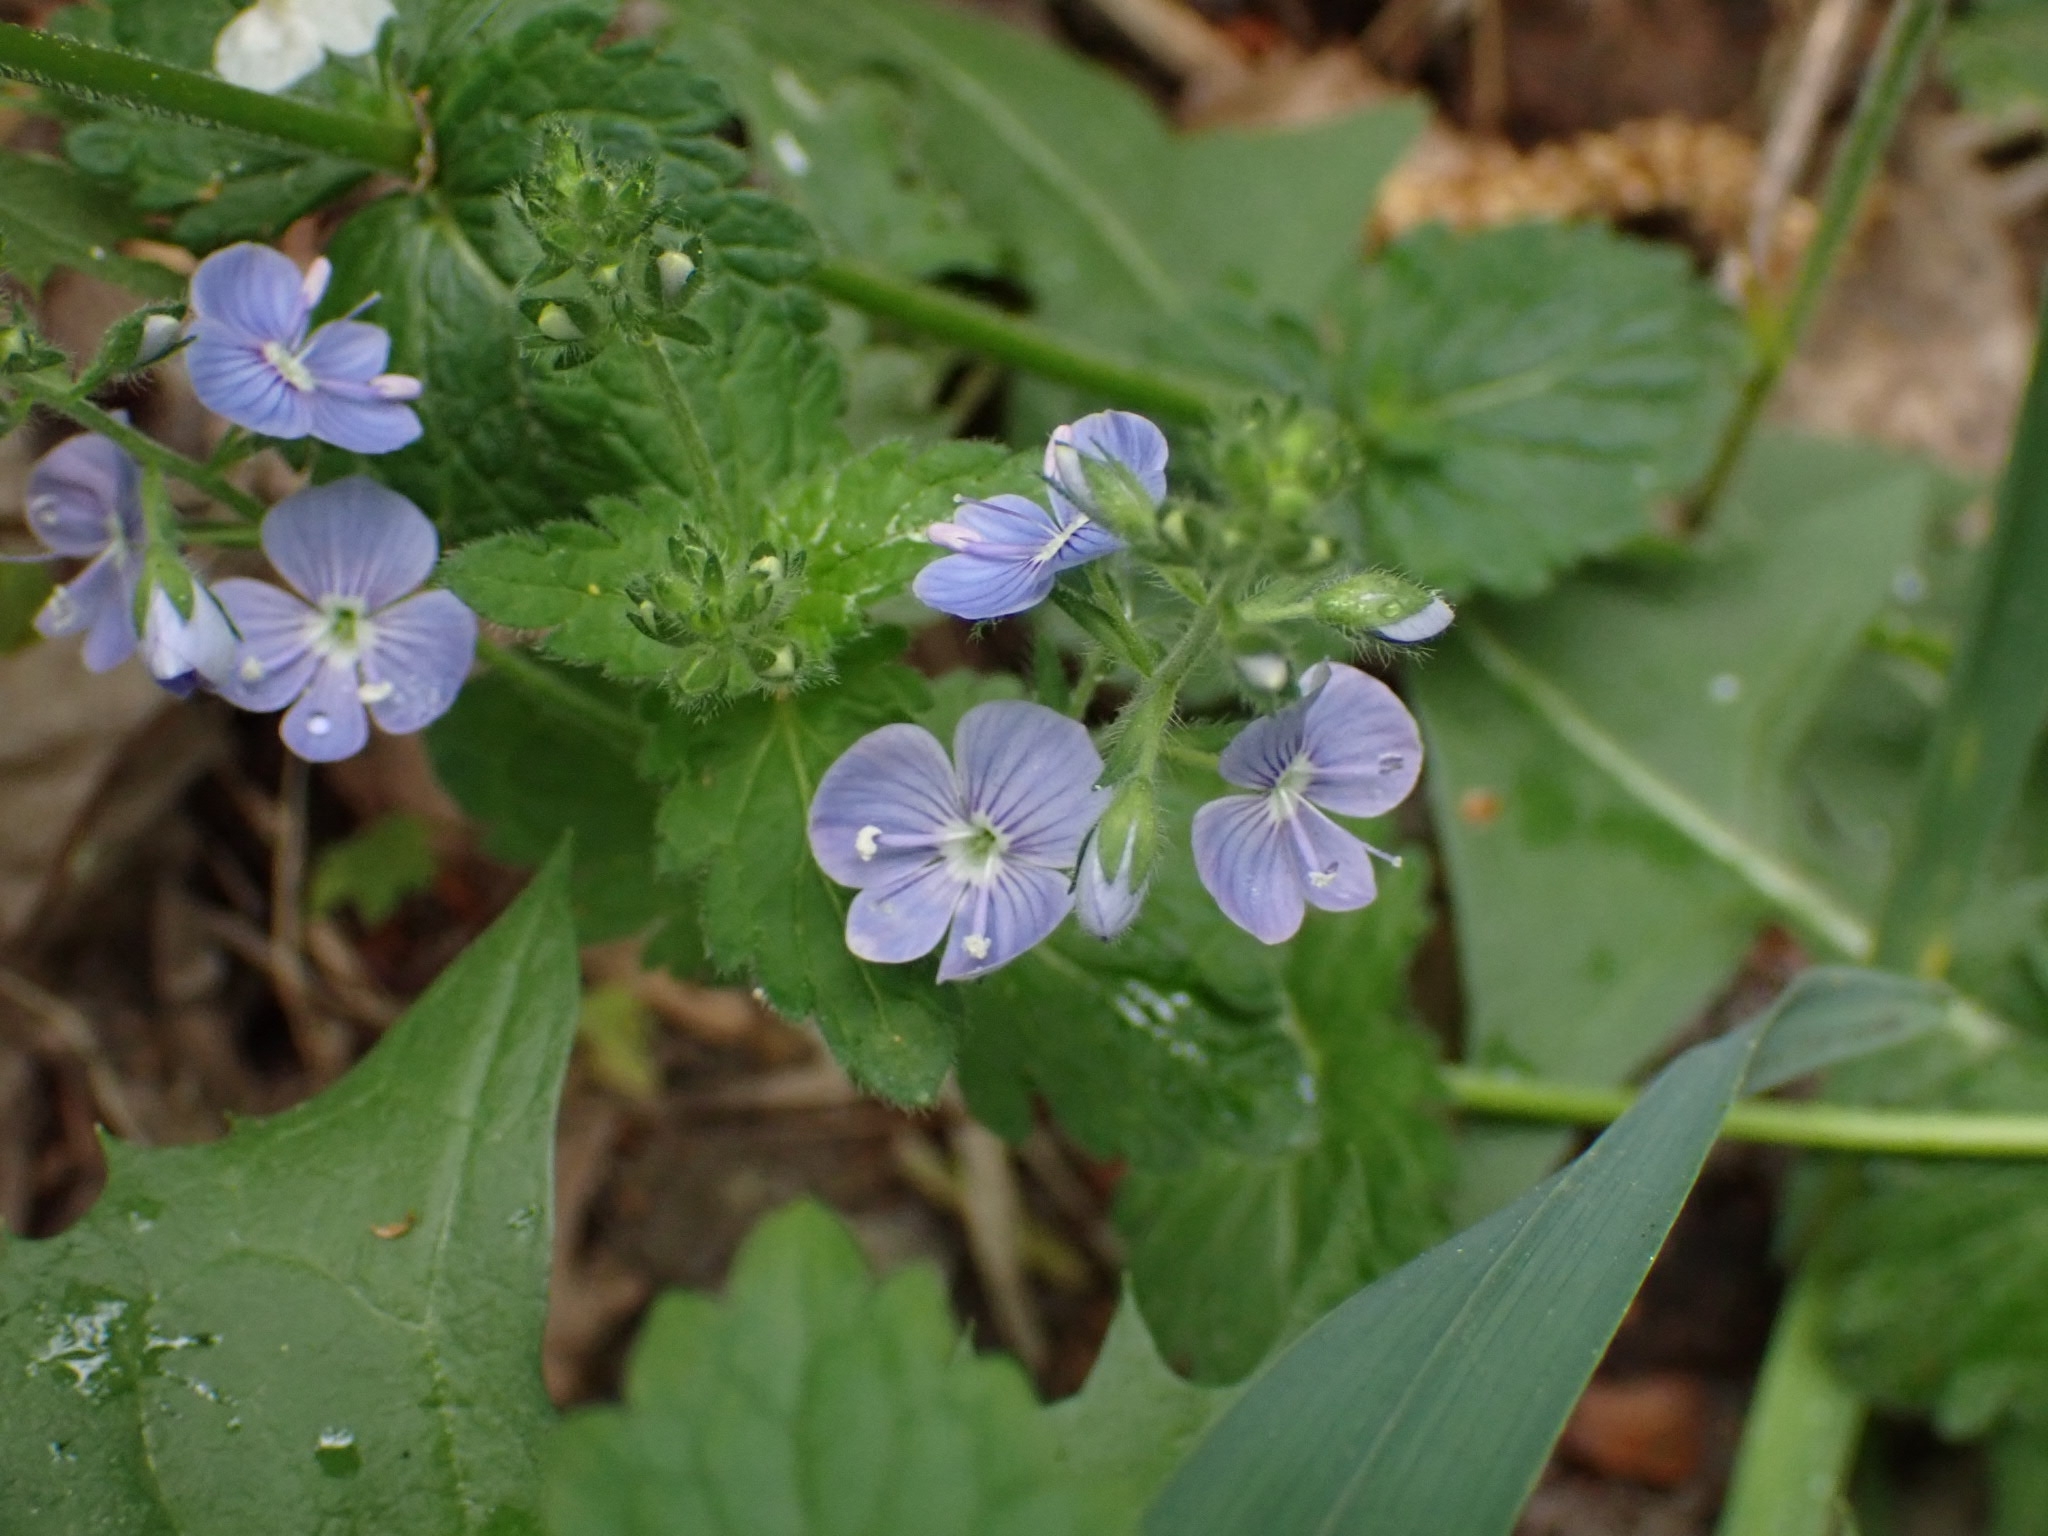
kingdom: Plantae
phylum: Tracheophyta
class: Magnoliopsida
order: Lamiales
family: Plantaginaceae
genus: Veronica
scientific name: Veronica chamaedrys
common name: Germander speedwell
